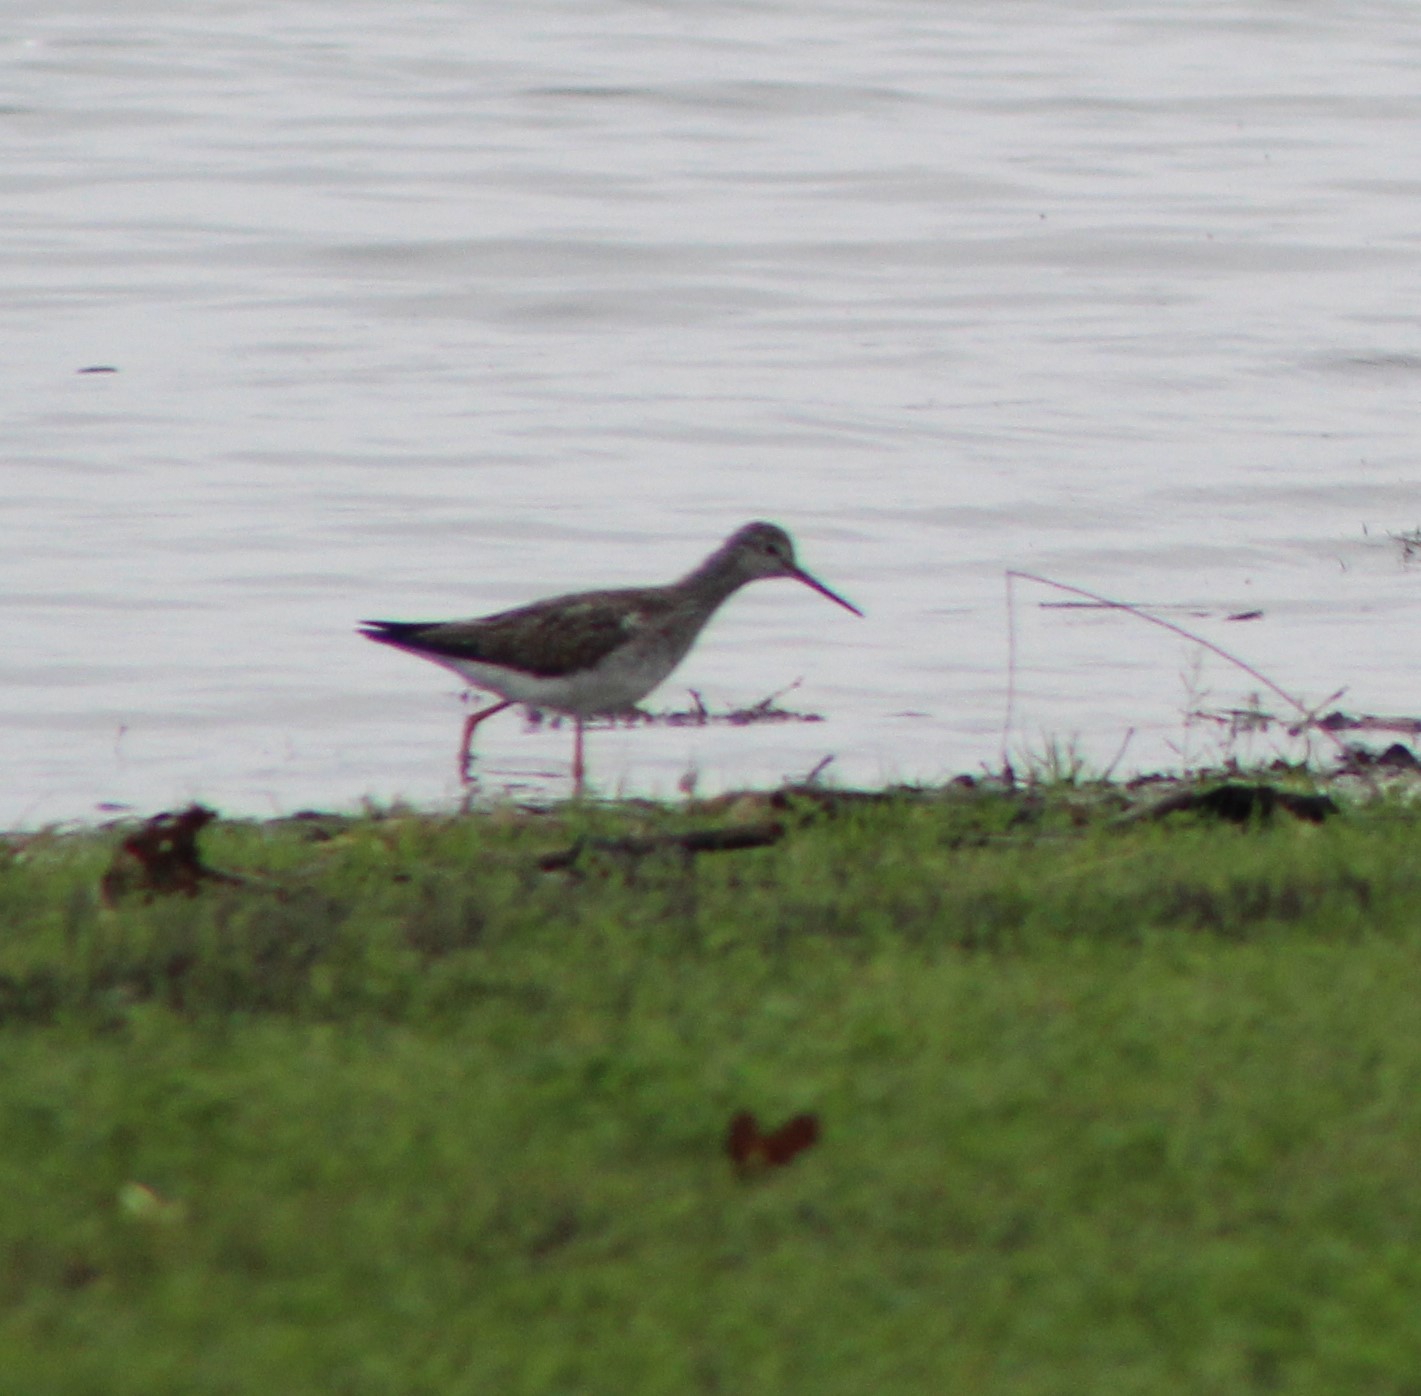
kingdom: Animalia
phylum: Chordata
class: Aves
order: Charadriiformes
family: Scolopacidae
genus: Tringa
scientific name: Tringa melanoleuca
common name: Greater yellowlegs
